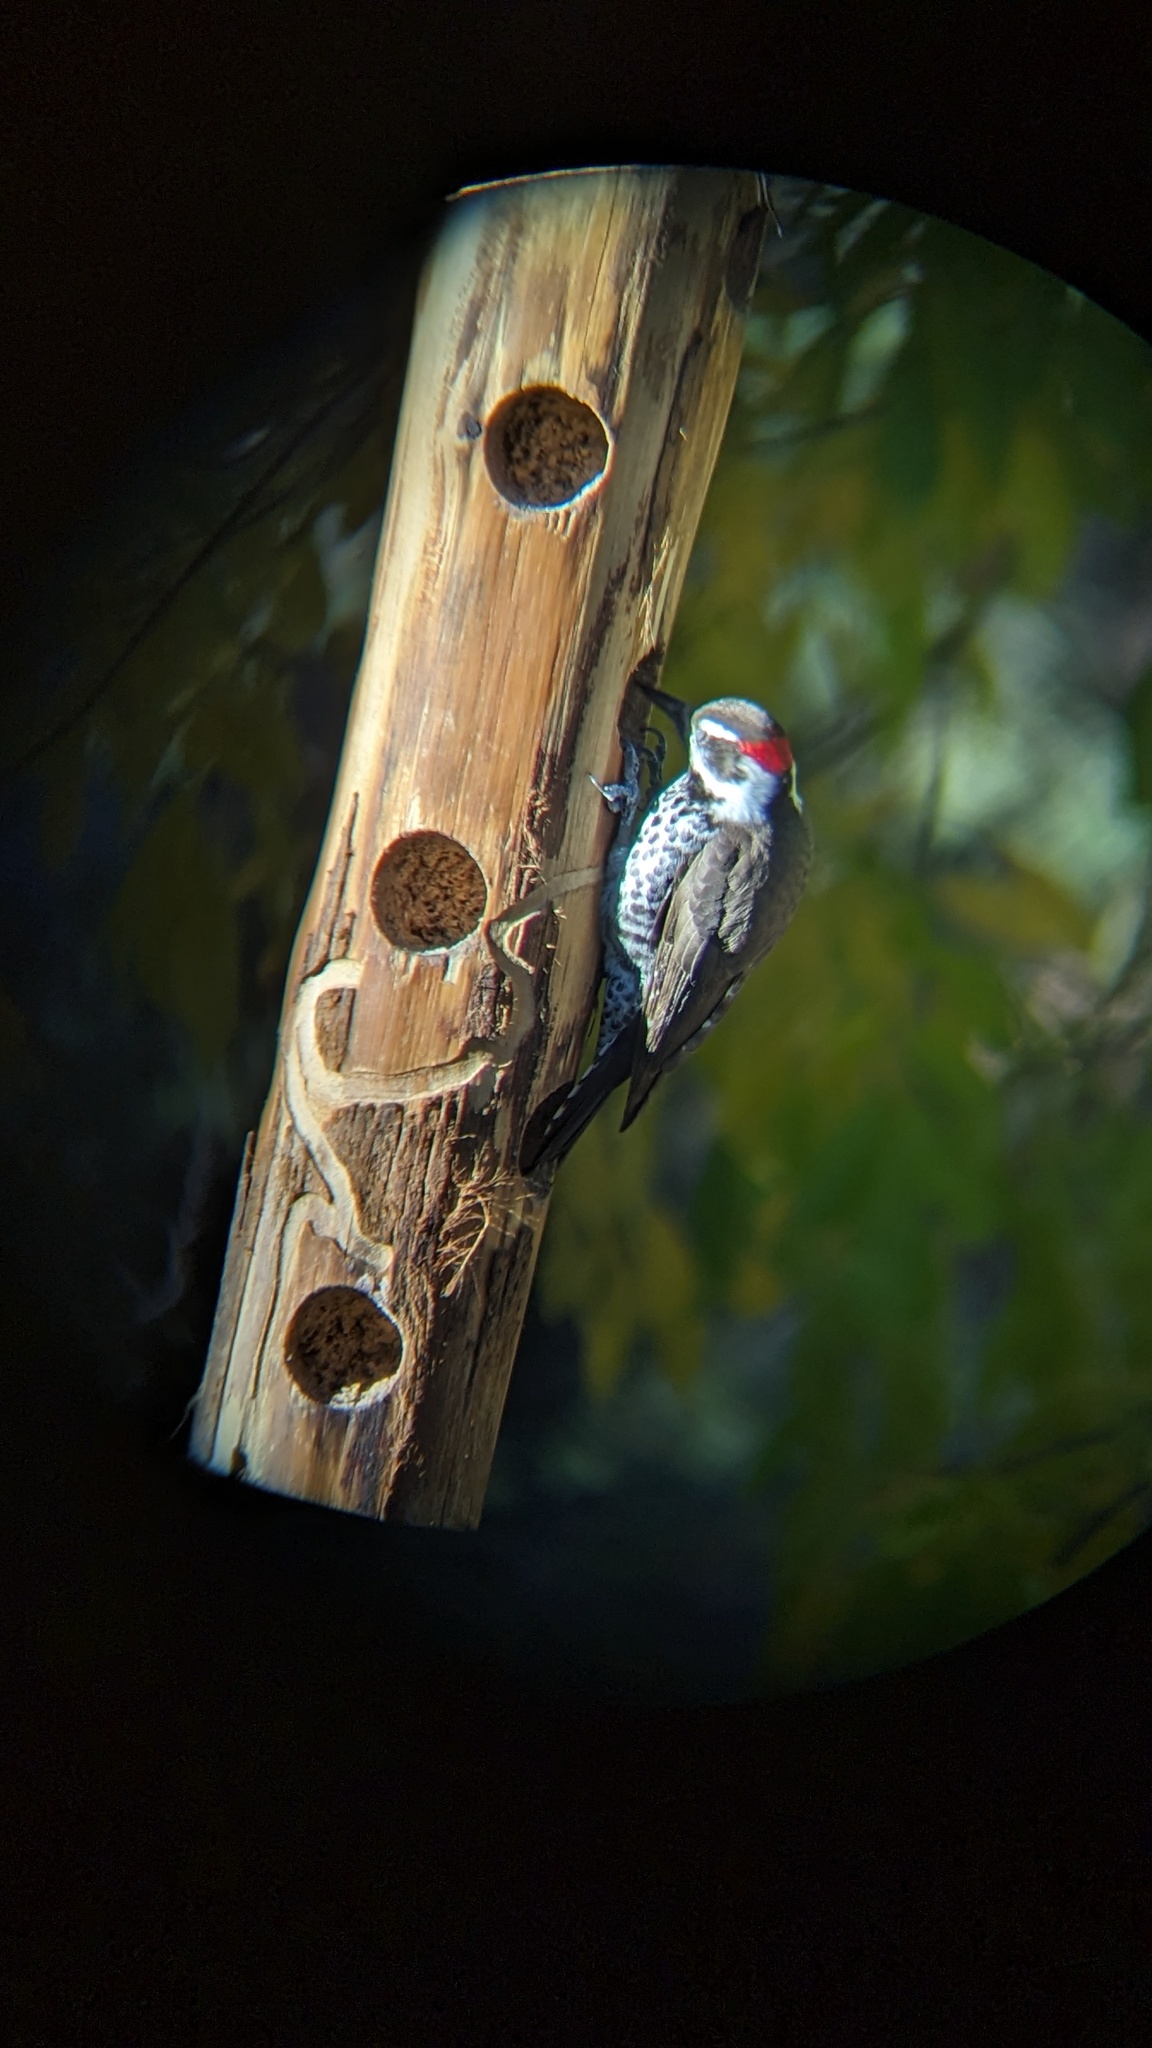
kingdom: Animalia
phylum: Chordata
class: Aves
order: Piciformes
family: Picidae
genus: Leuconotopicus
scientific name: Leuconotopicus arizonae
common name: Arizona woodpecker
